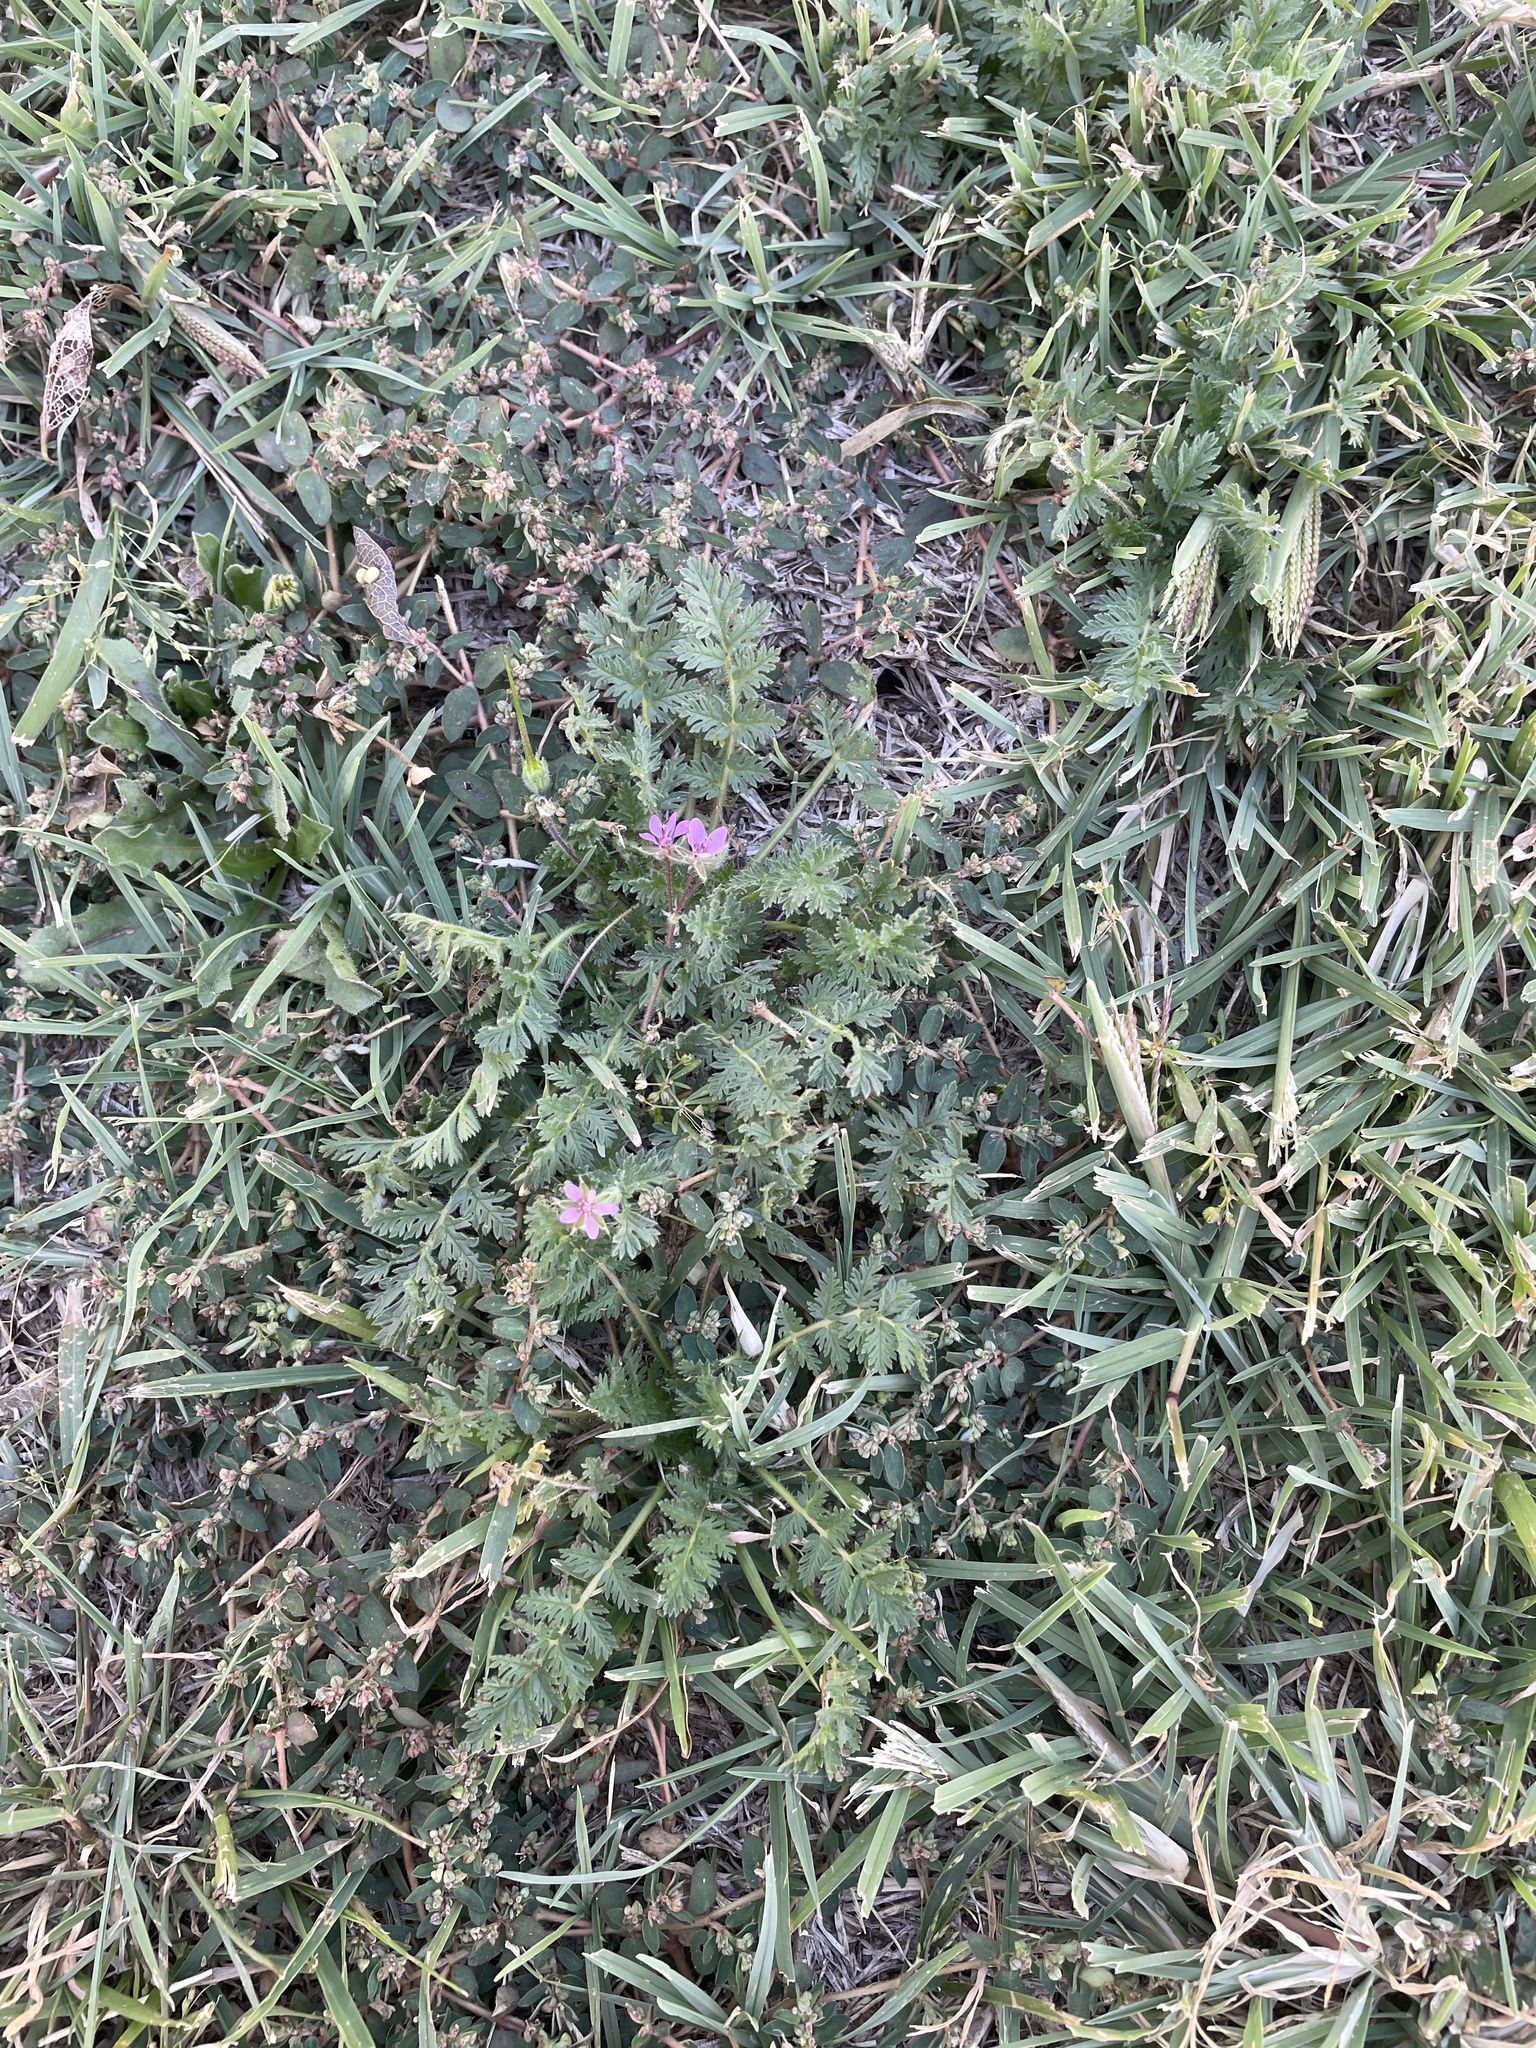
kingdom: Plantae
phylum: Tracheophyta
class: Magnoliopsida
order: Geraniales
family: Geraniaceae
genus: Erodium
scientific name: Erodium cicutarium
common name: Common stork's-bill
